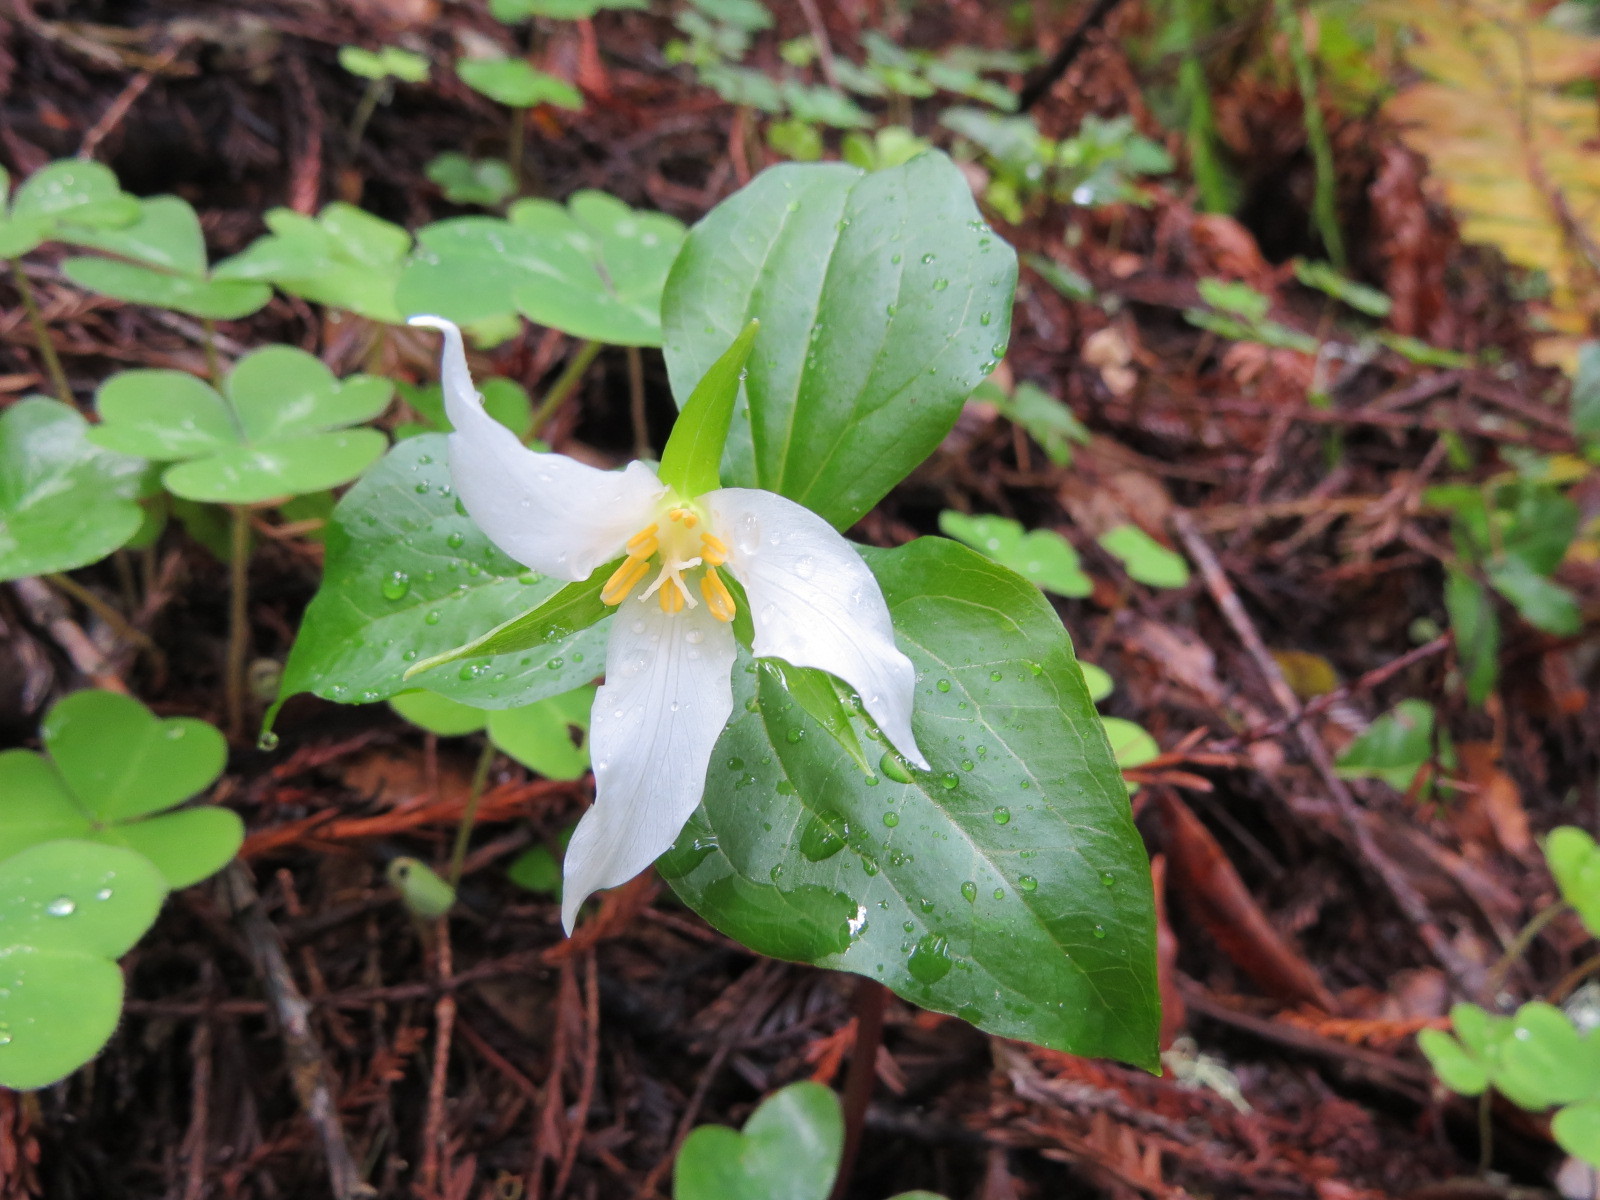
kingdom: Plantae
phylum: Tracheophyta
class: Liliopsida
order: Liliales
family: Melanthiaceae
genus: Trillium
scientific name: Trillium ovatum
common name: Pacific trillium
